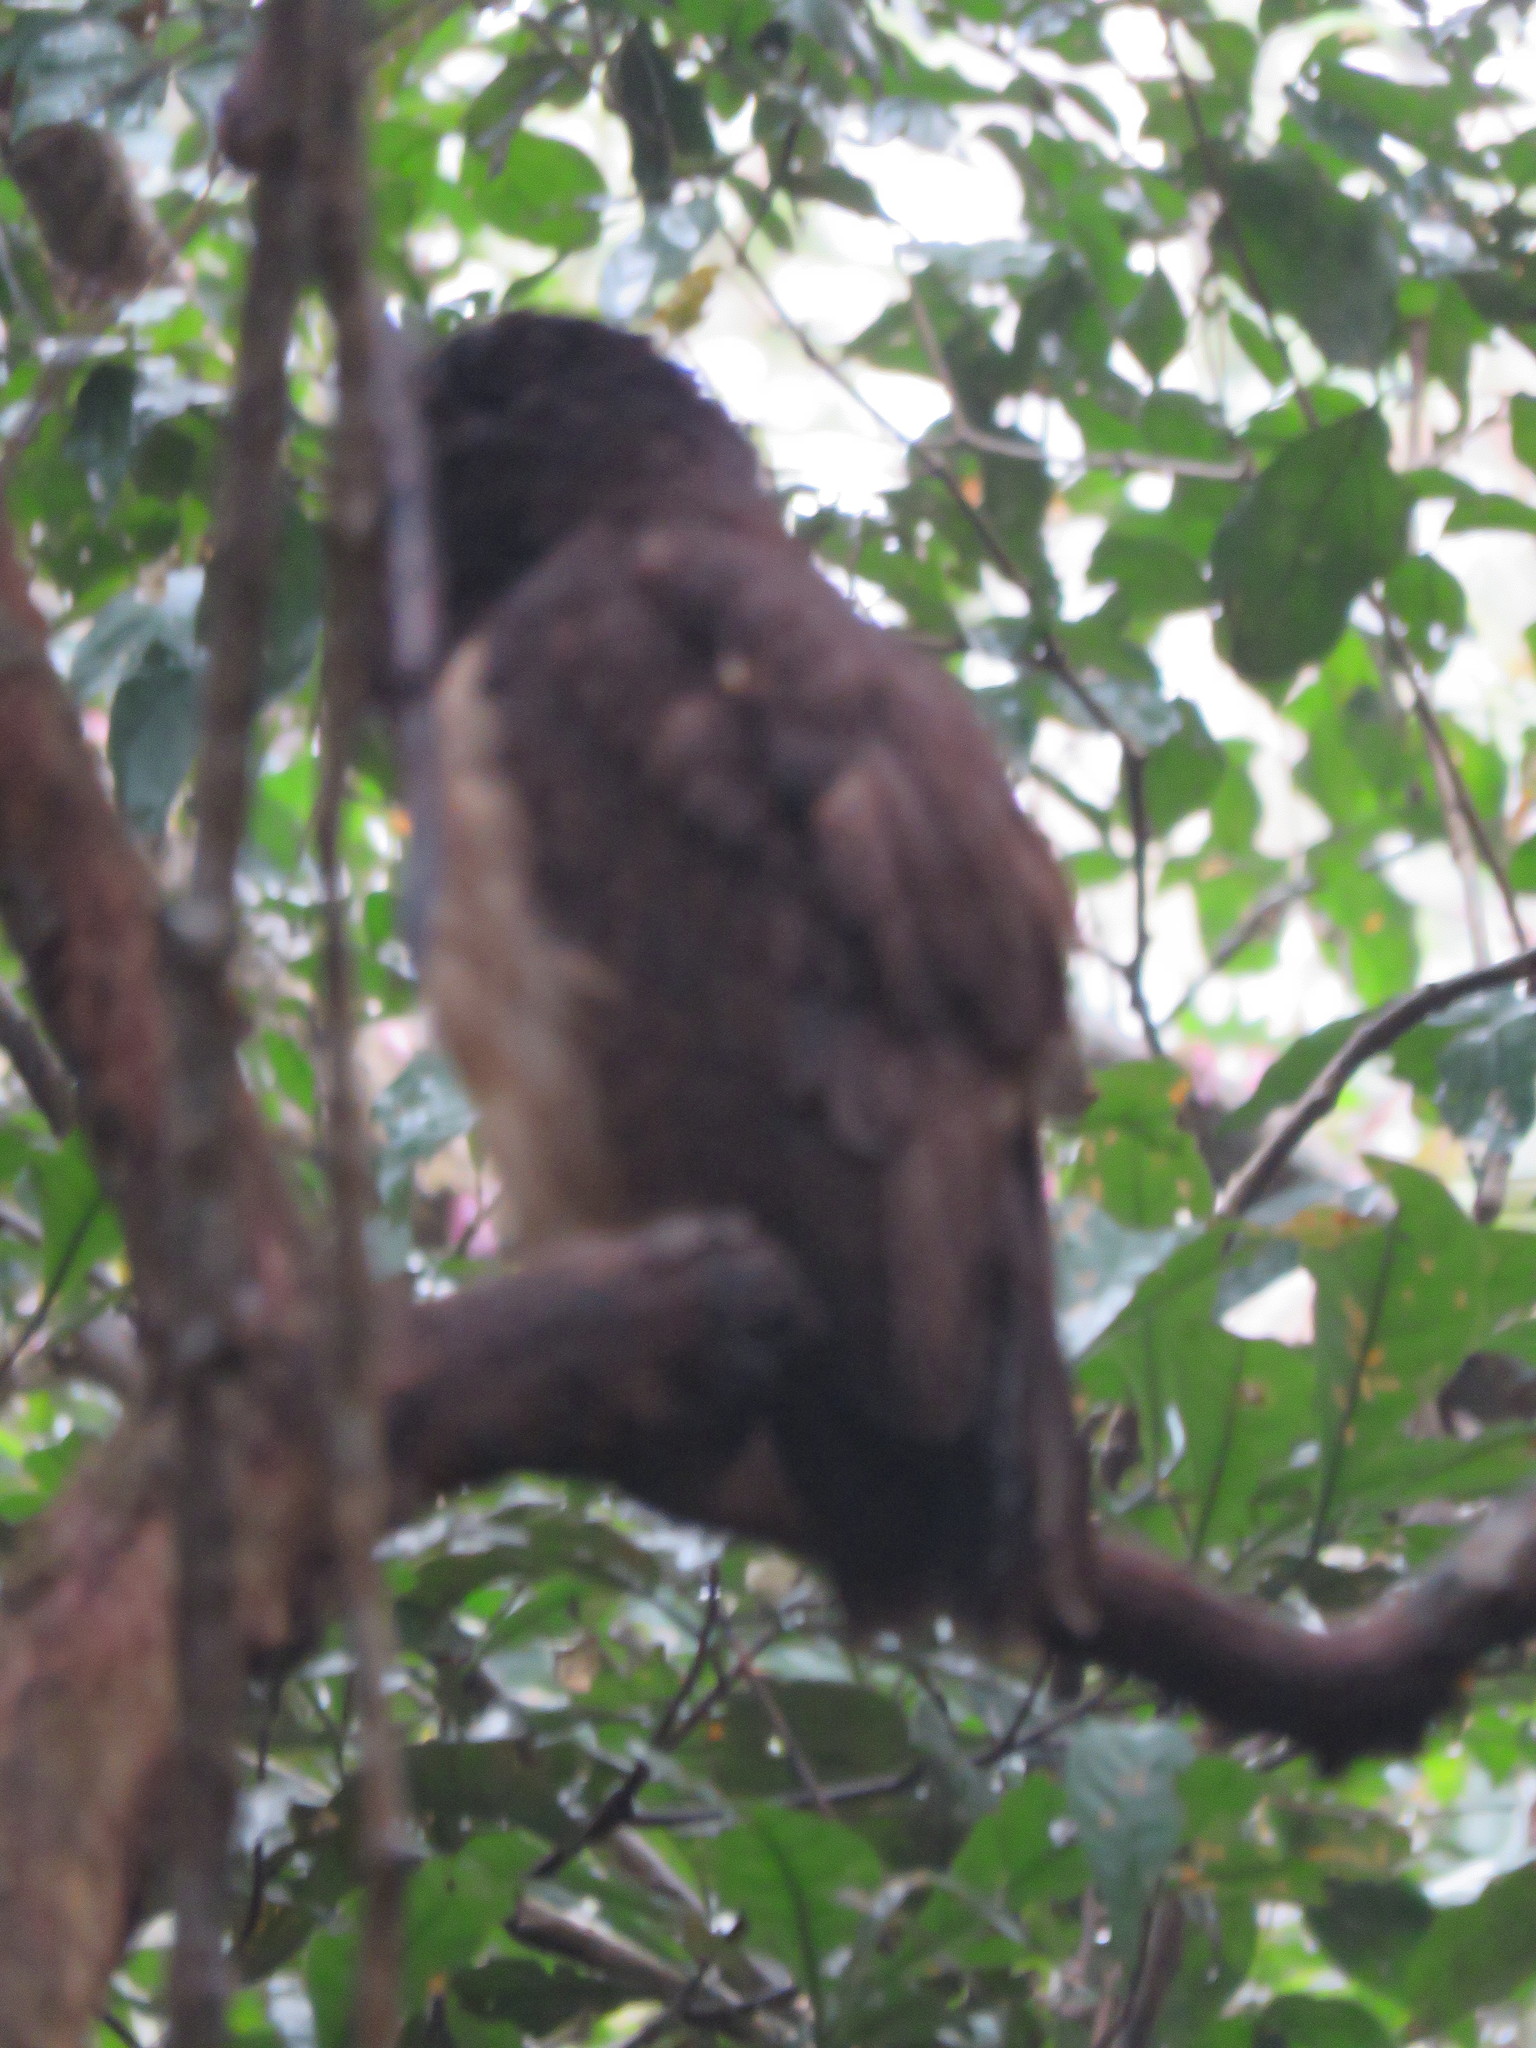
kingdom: Animalia
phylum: Chordata
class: Aves
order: Strigiformes
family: Strigidae
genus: Pulsatrix
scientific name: Pulsatrix perspicillata
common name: Spectacled owl
